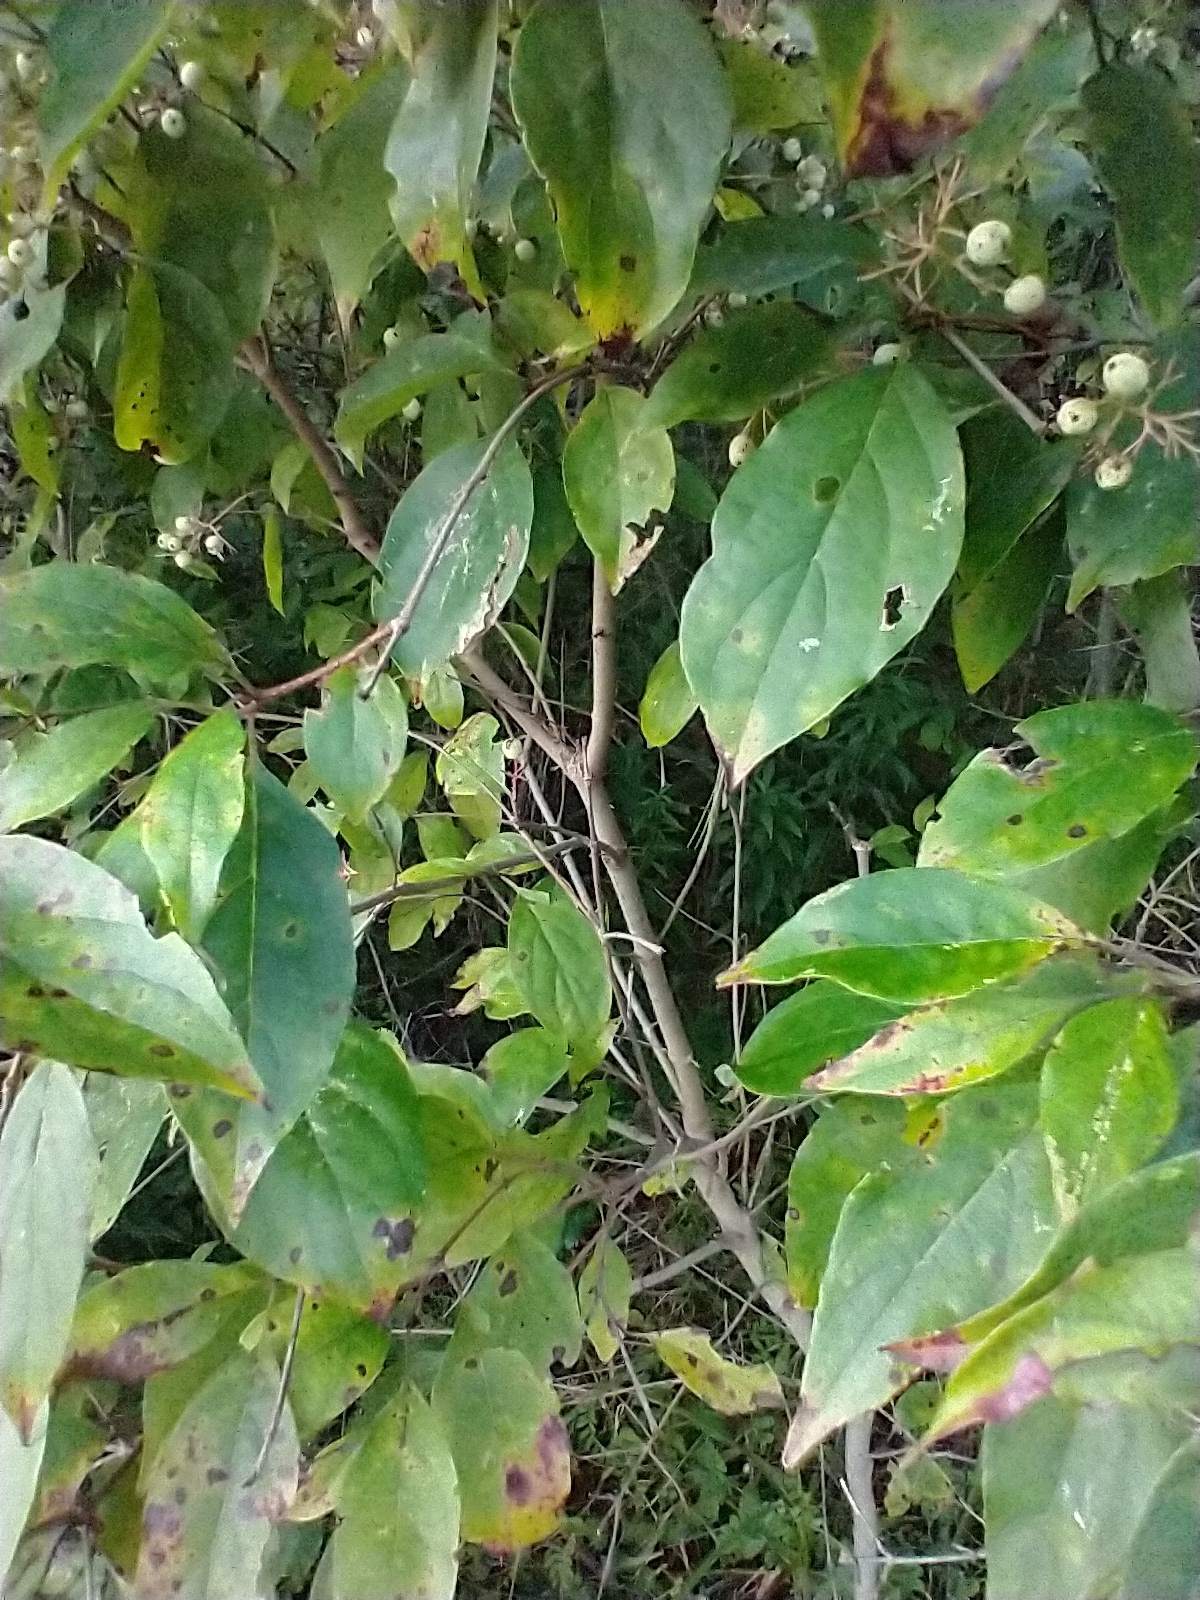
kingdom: Plantae
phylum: Tracheophyta
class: Magnoliopsida
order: Cornales
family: Cornaceae
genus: Cornus
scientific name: Cornus racemosa
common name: Panicled dogwood
